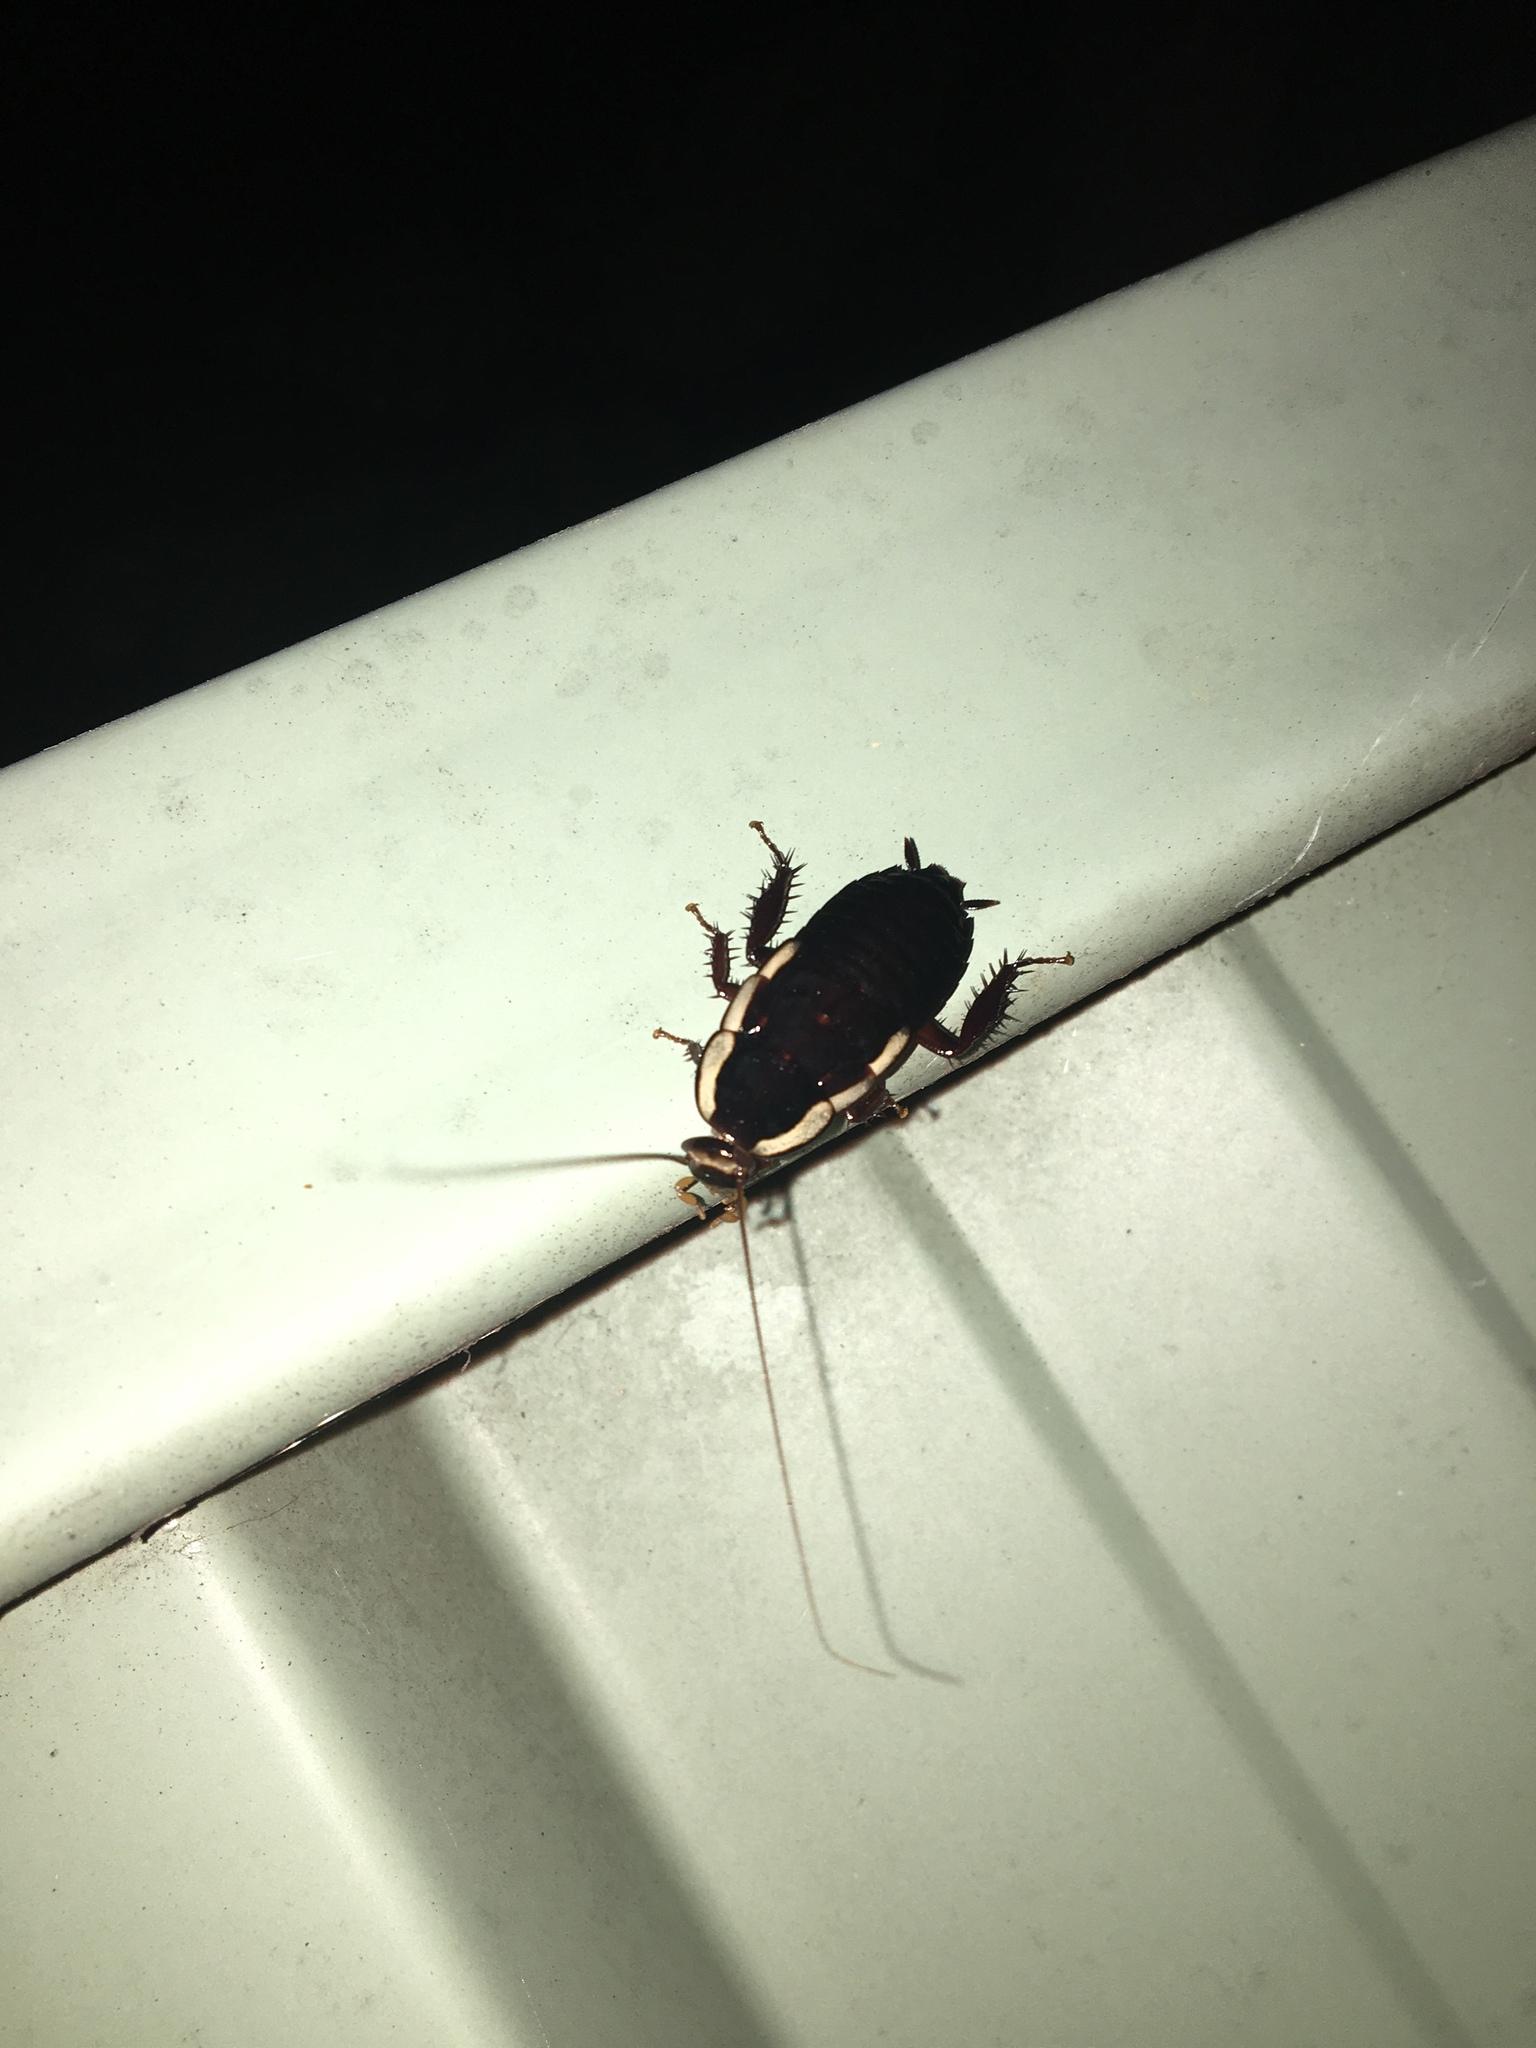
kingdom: Animalia
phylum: Arthropoda
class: Insecta
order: Blattodea
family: Blattidae
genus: Drymaplaneta
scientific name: Drymaplaneta semivitta
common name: Gisborne cockroach
